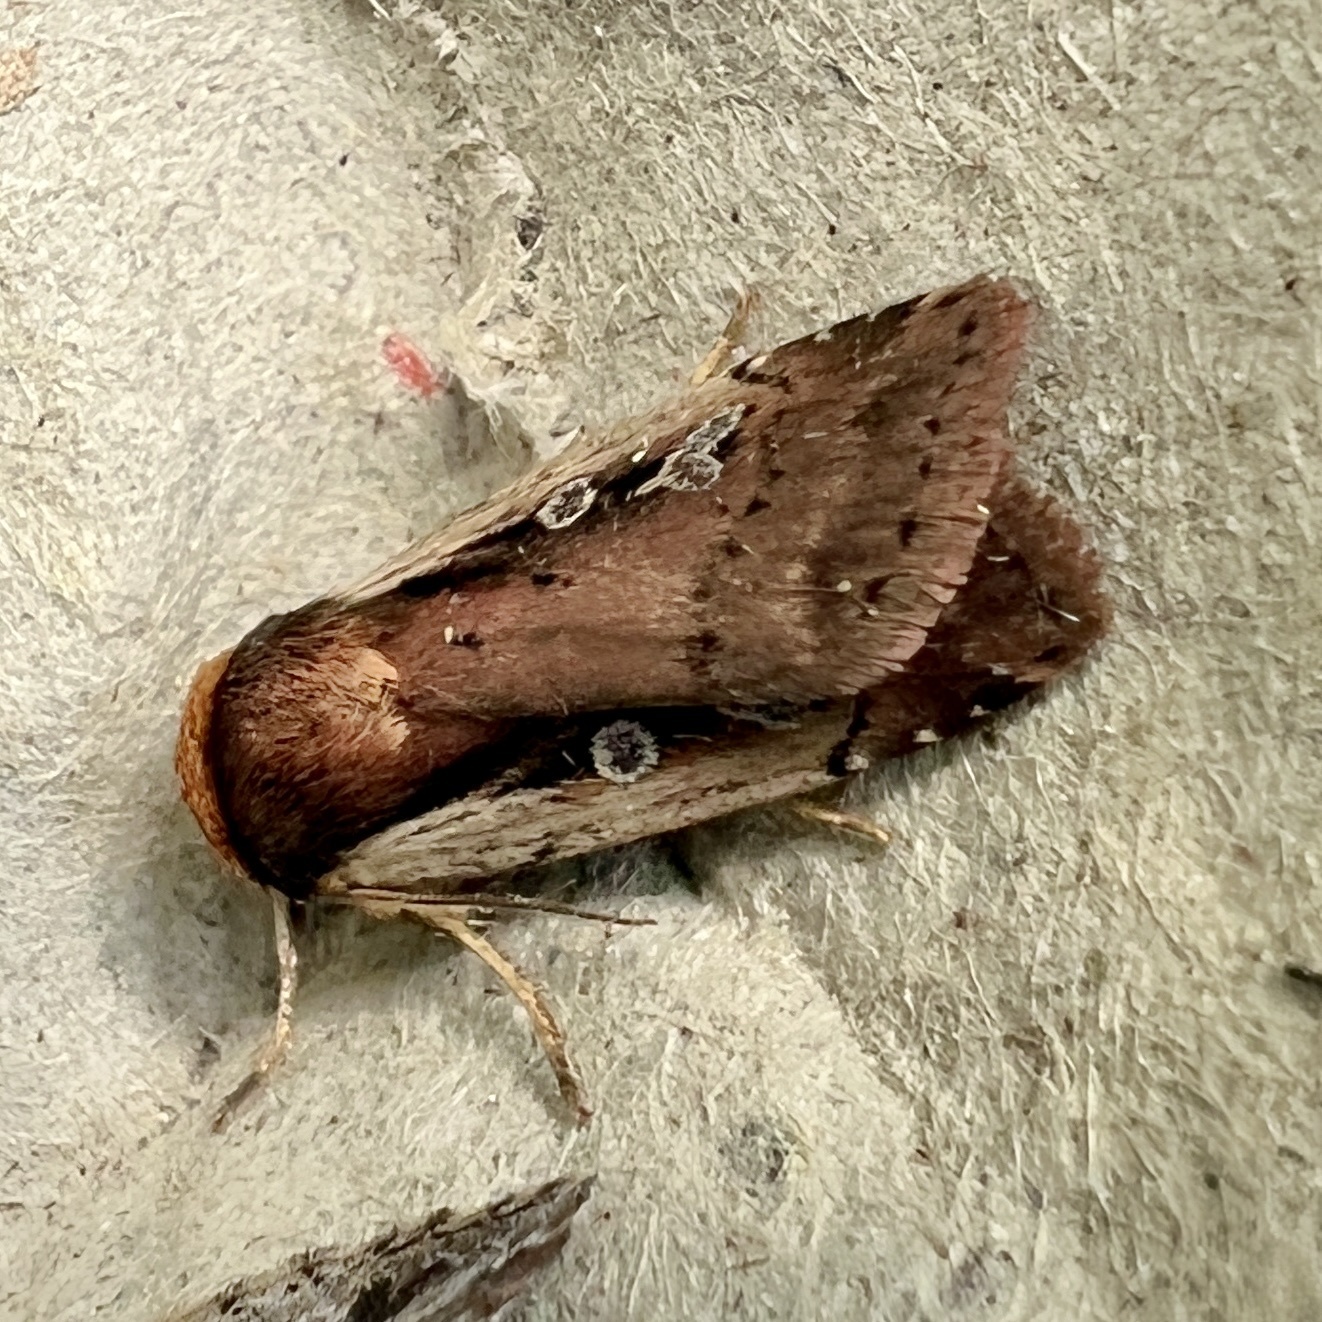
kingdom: Animalia
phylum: Arthropoda
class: Insecta
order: Lepidoptera
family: Noctuidae
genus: Ochropleura
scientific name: Ochropleura implecta
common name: Flame-shouldered dart
